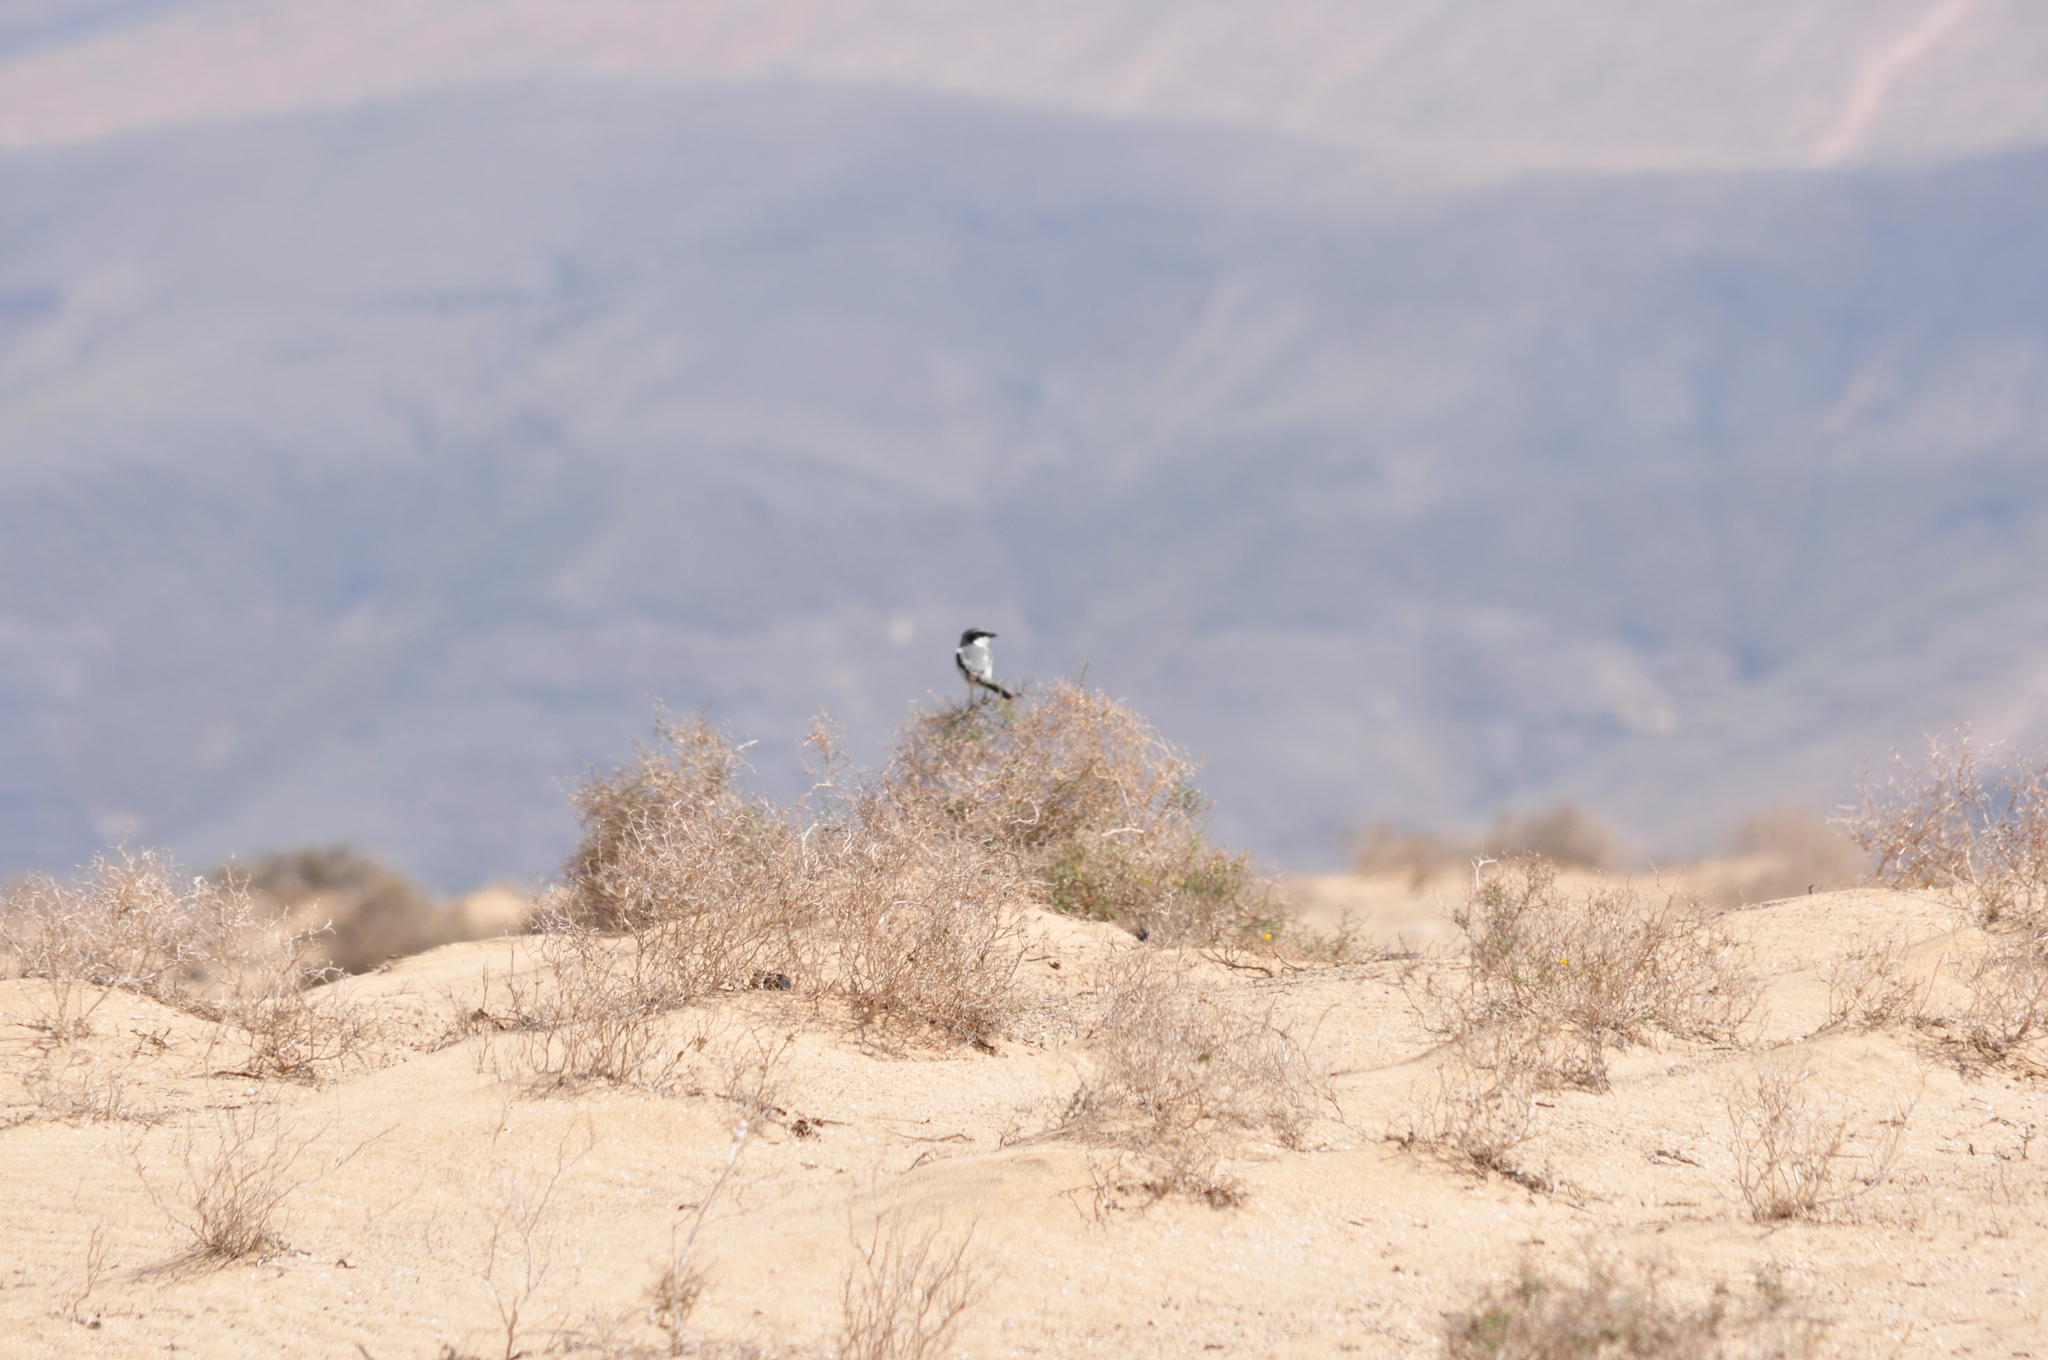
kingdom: Animalia
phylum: Chordata
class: Aves
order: Passeriformes
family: Laniidae
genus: Lanius
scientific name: Lanius excubitor
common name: Great grey shrike
